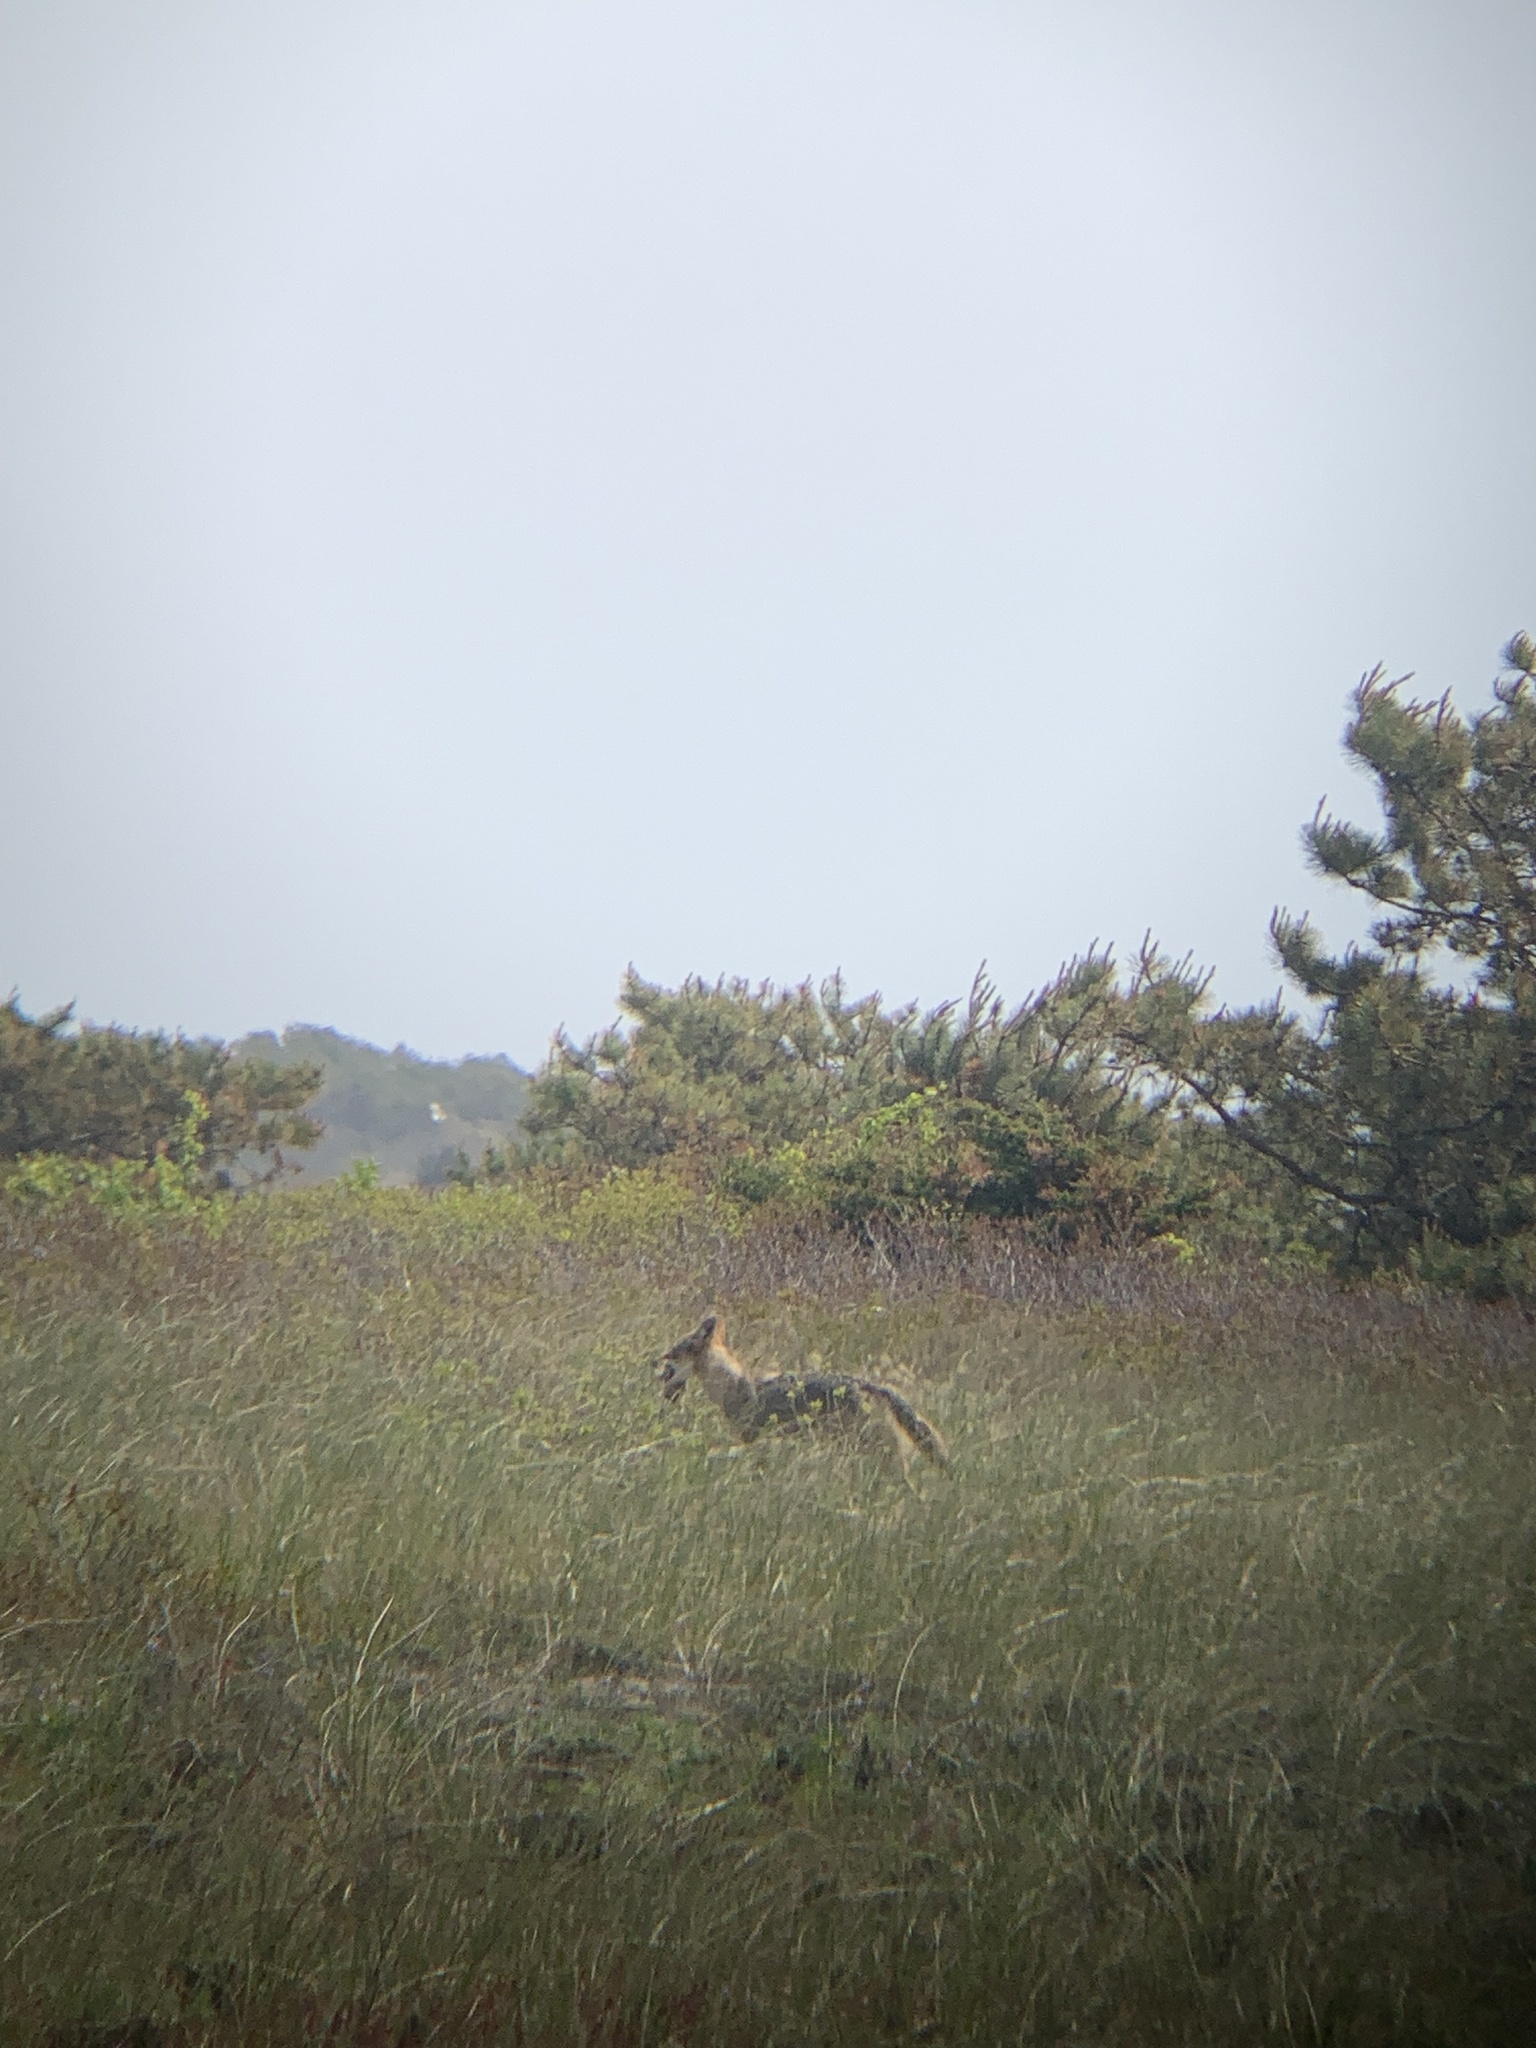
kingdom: Animalia
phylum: Chordata
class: Mammalia
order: Carnivora
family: Canidae
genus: Canis
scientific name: Canis latrans
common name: Coyote
